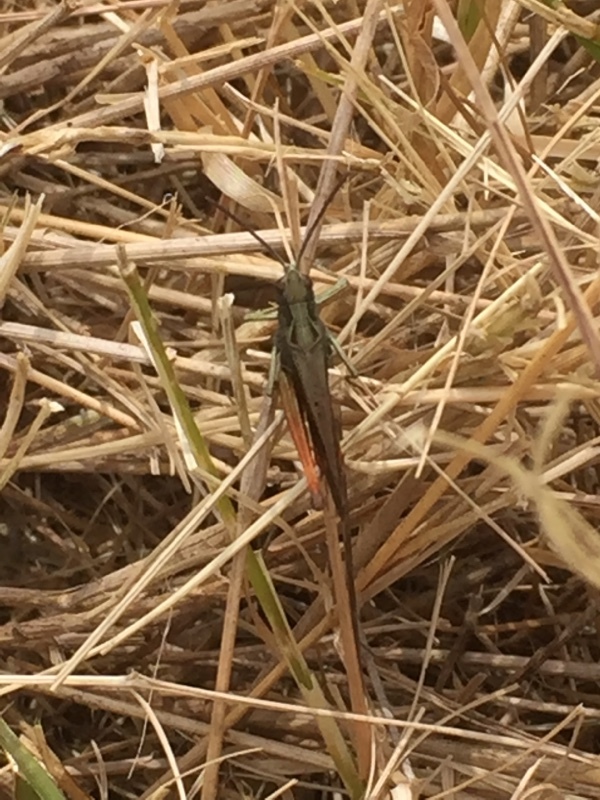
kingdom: Animalia
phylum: Arthropoda
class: Insecta
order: Orthoptera
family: Acrididae
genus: Omocestus
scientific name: Omocestus rufipes
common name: Woodland grasshopper
